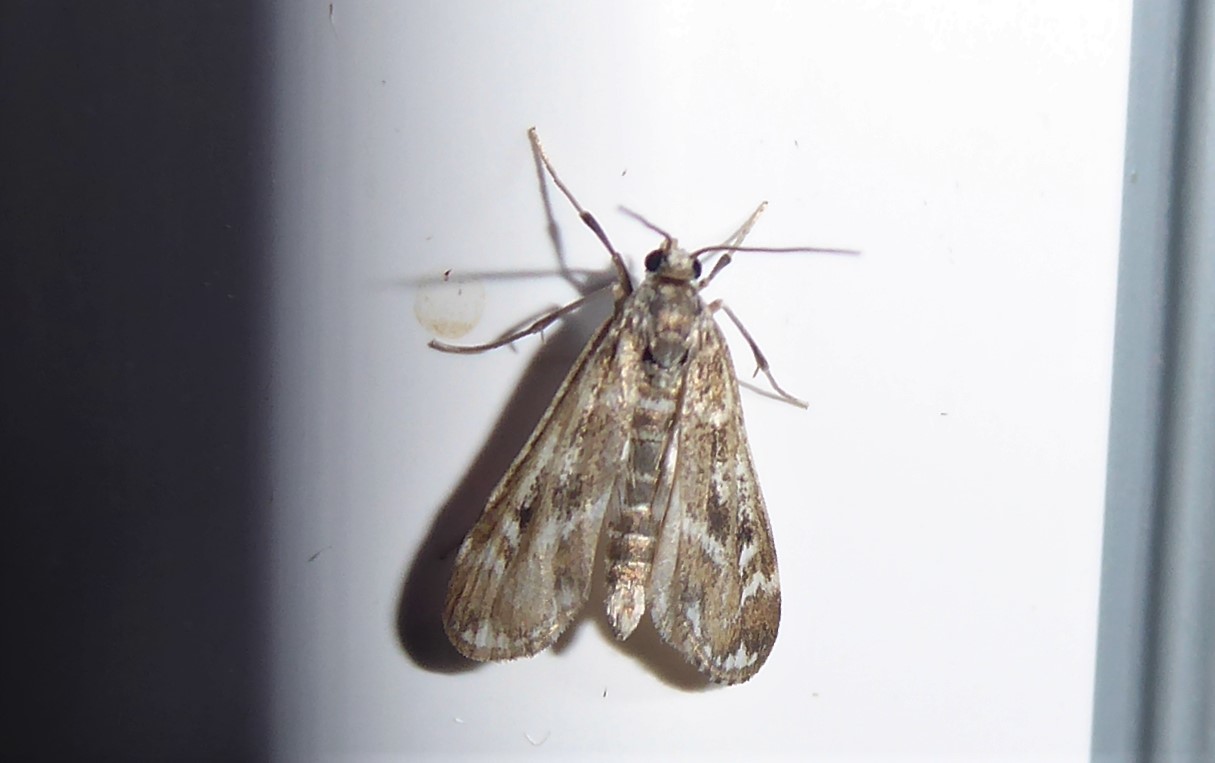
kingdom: Animalia
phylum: Arthropoda
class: Insecta
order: Lepidoptera
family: Crambidae
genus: Hygraula
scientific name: Hygraula nitens
